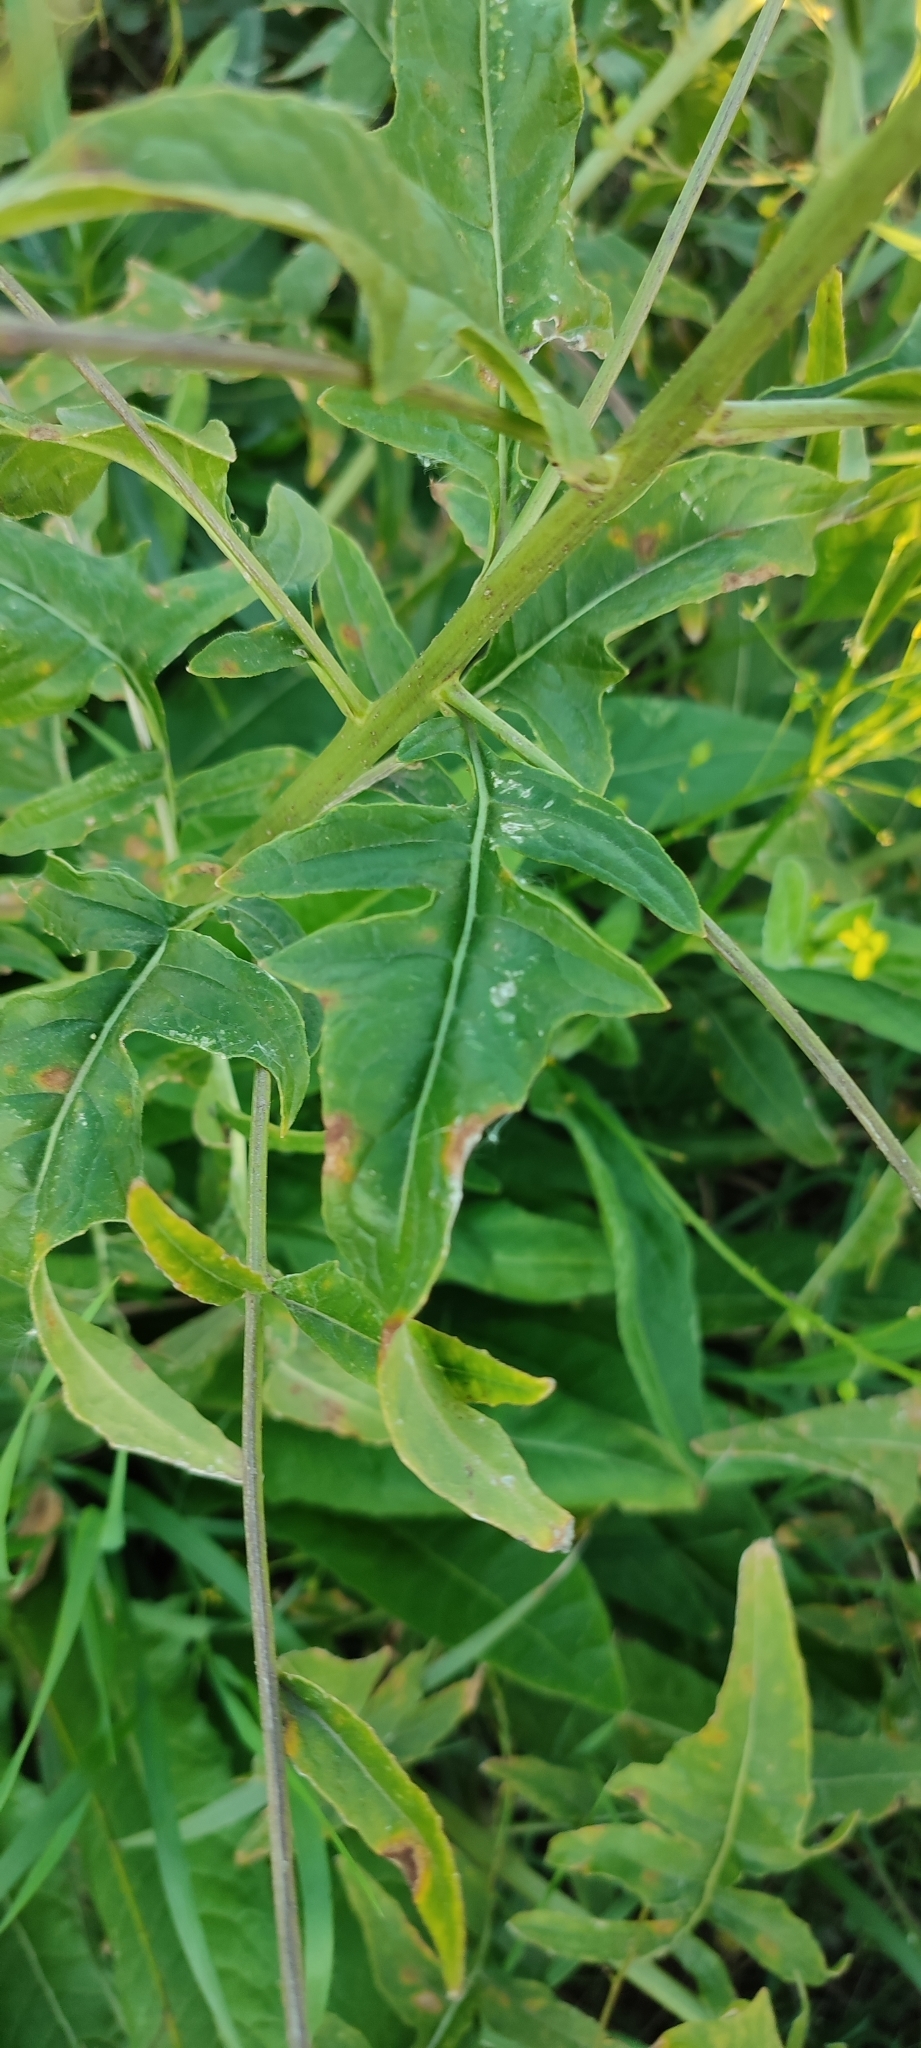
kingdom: Plantae
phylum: Tracheophyta
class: Magnoliopsida
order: Brassicales
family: Brassicaceae
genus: Bunias
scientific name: Bunias orientalis
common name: Warty-cabbage
